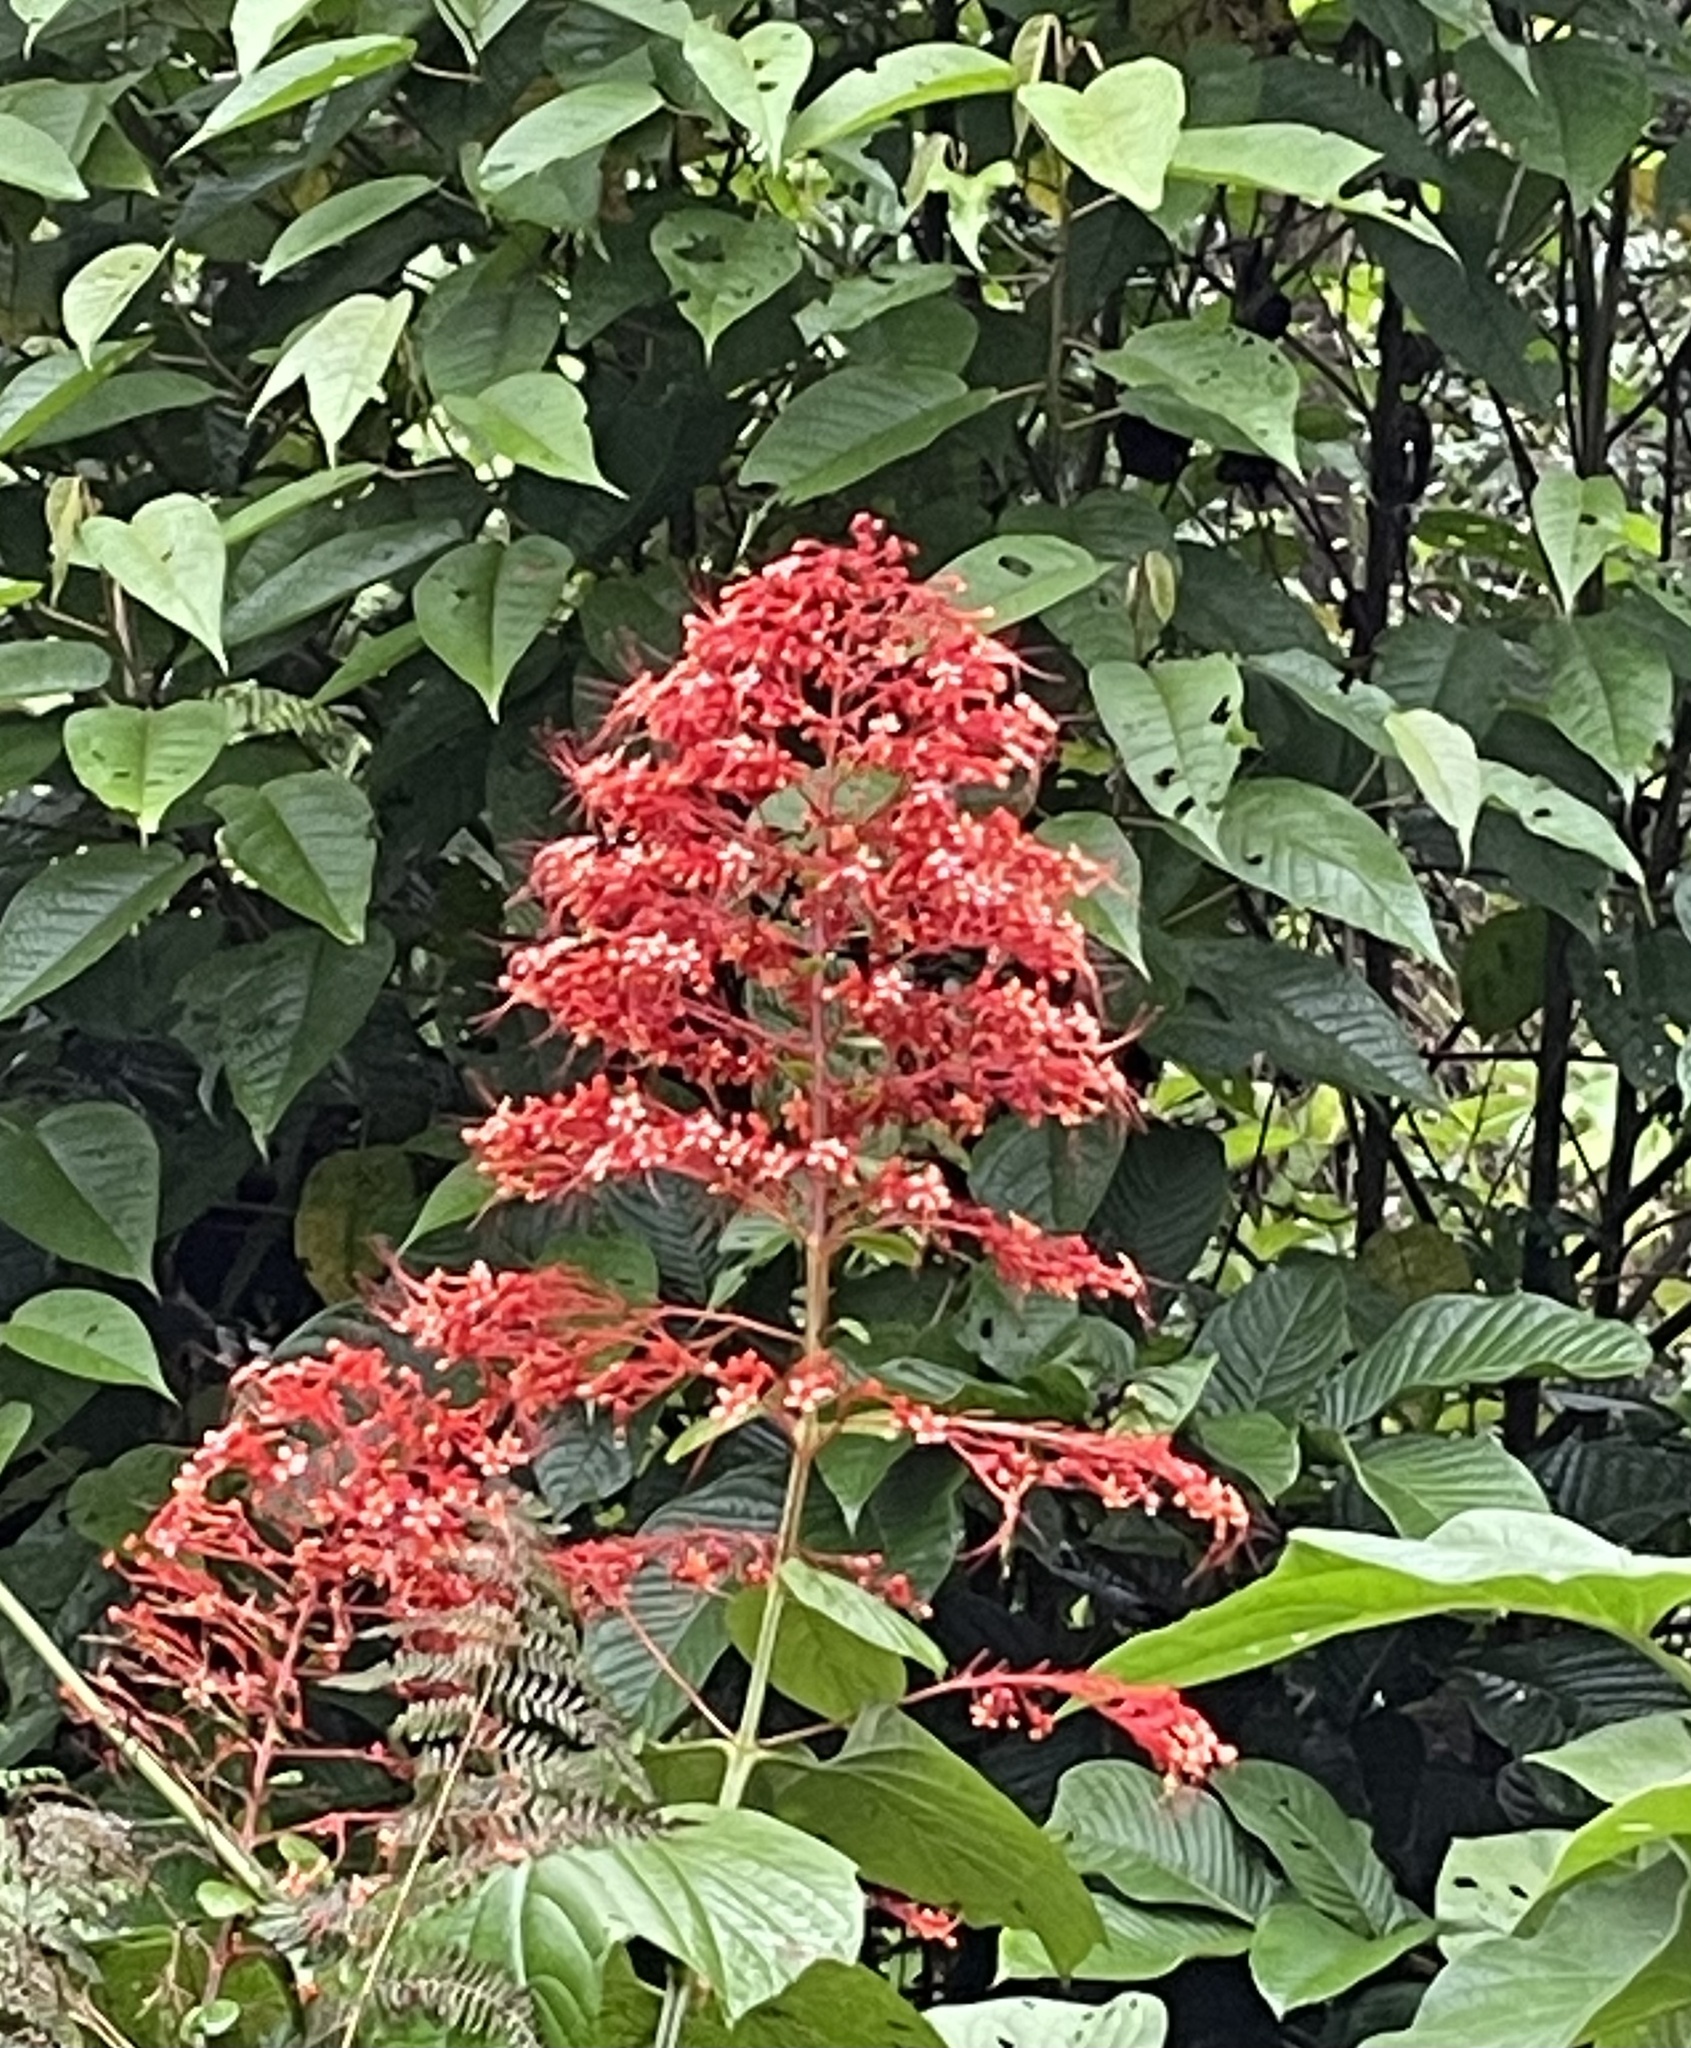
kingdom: Plantae
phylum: Tracheophyta
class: Magnoliopsida
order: Lamiales
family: Lamiaceae
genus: Clerodendrum
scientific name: Clerodendrum paniculatum
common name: Pagoda-flower
